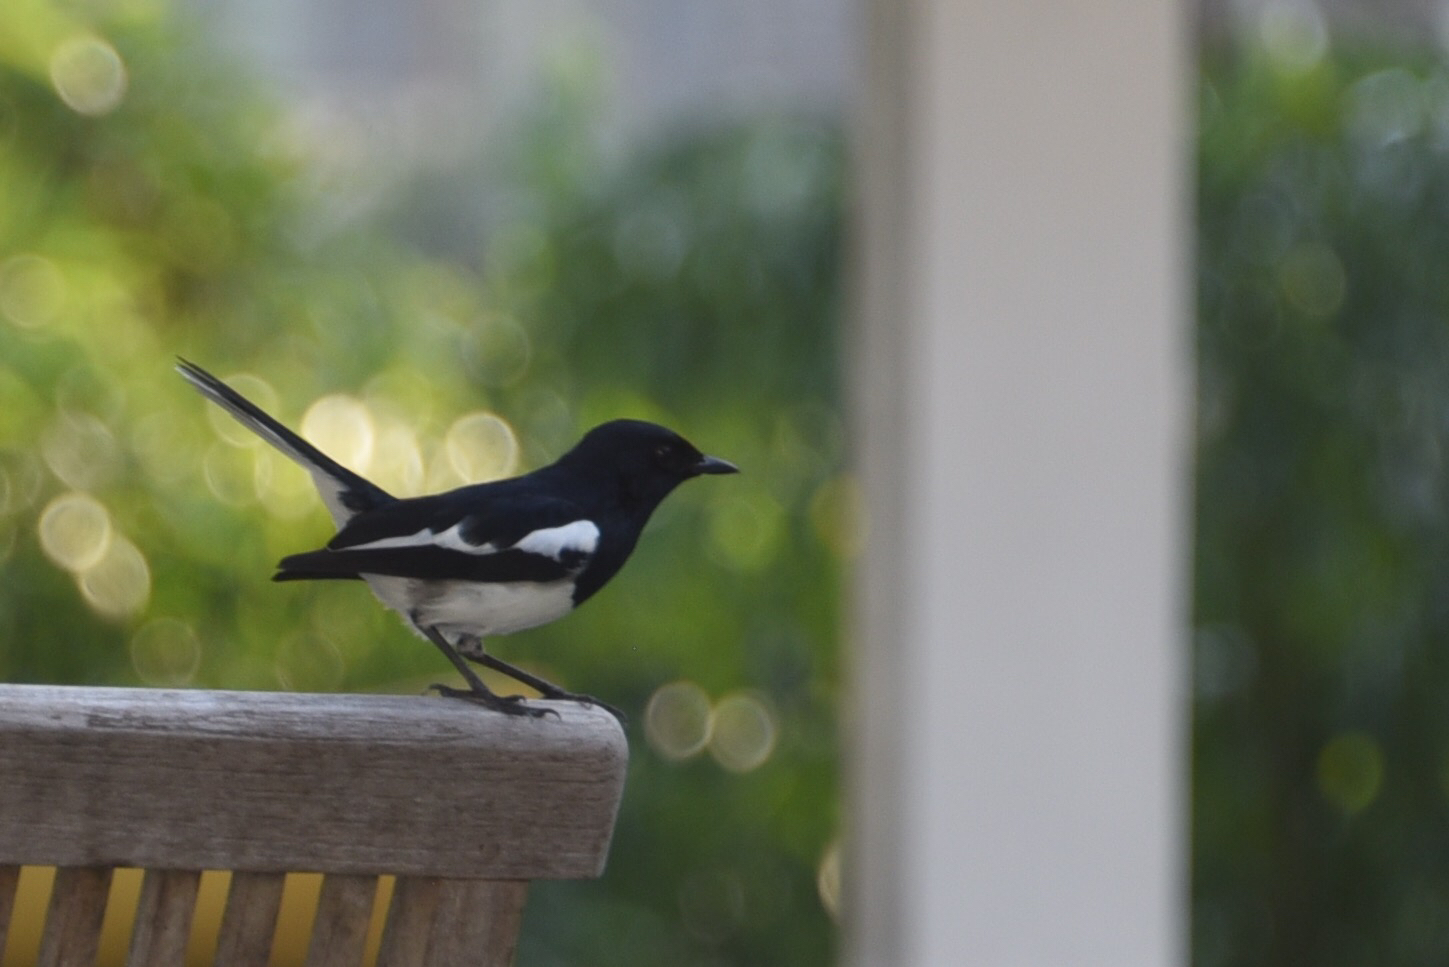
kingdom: Animalia
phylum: Chordata
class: Aves
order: Passeriformes
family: Muscicapidae
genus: Copsychus
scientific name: Copsychus saularis
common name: Oriental magpie-robin
